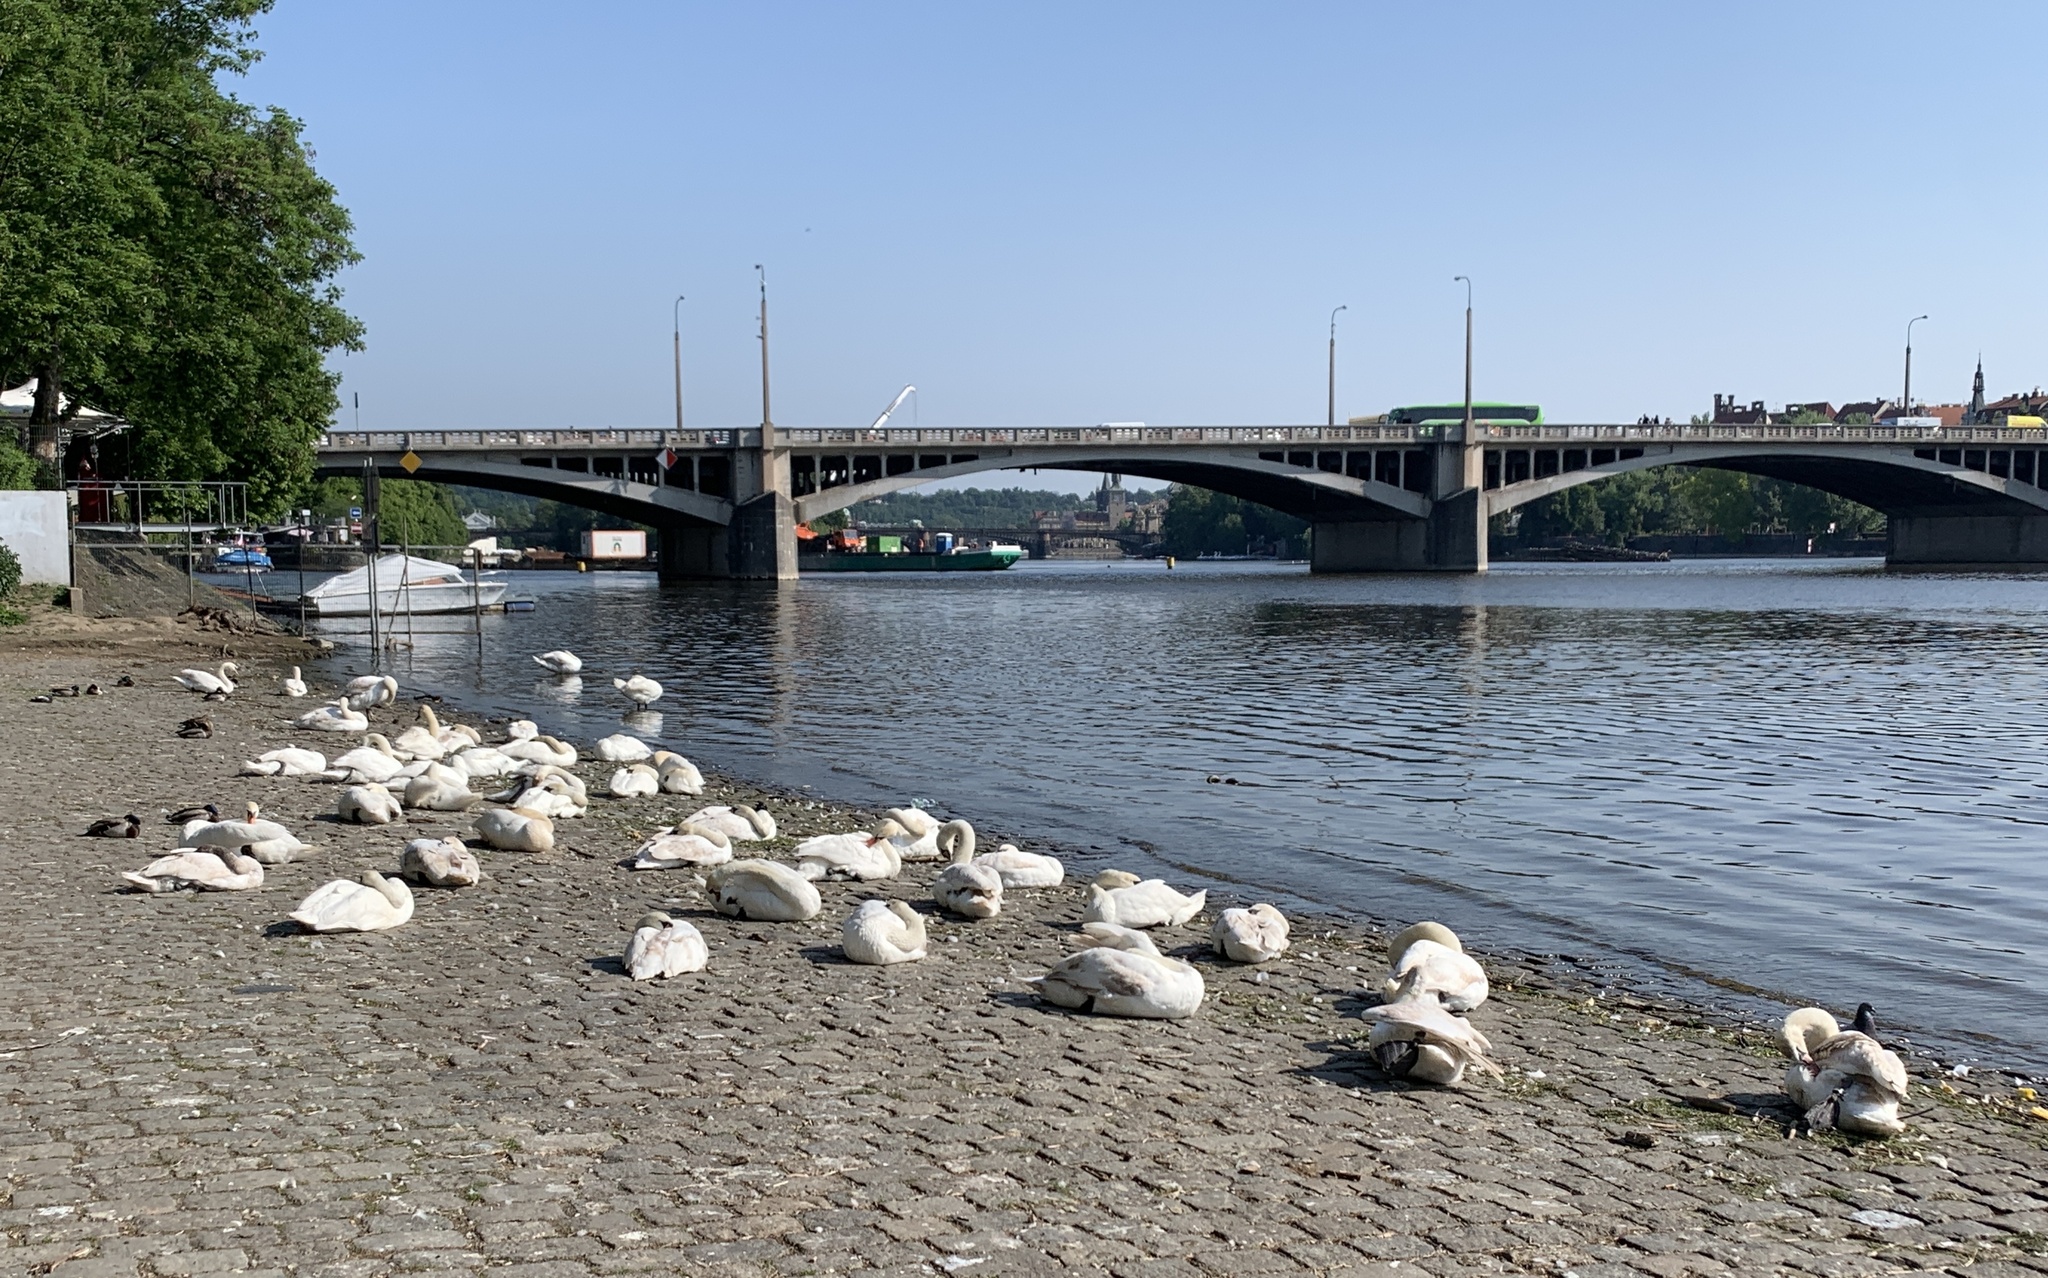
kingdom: Animalia
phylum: Chordata
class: Aves
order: Anseriformes
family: Anatidae
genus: Cygnus
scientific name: Cygnus olor
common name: Mute swan
